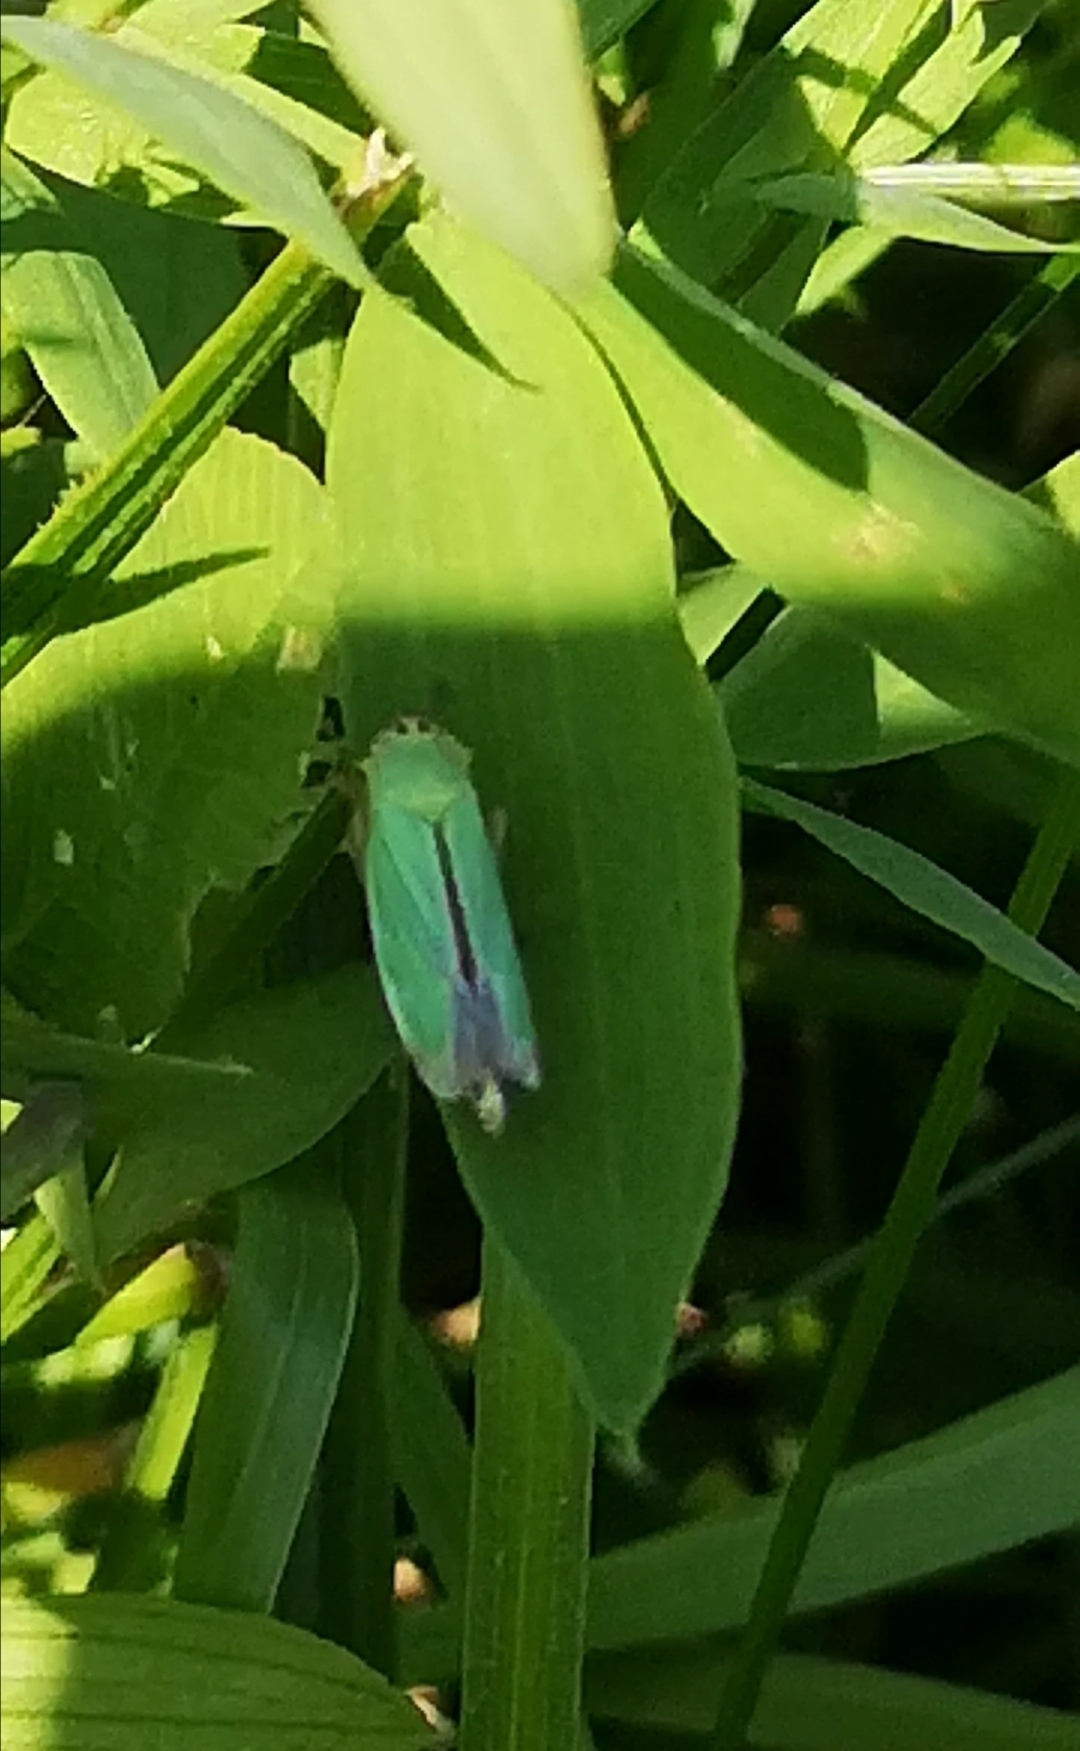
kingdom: Animalia
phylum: Arthropoda
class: Insecta
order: Hemiptera
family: Cicadellidae
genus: Cicadella
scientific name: Cicadella viridis
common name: Leafhopper
